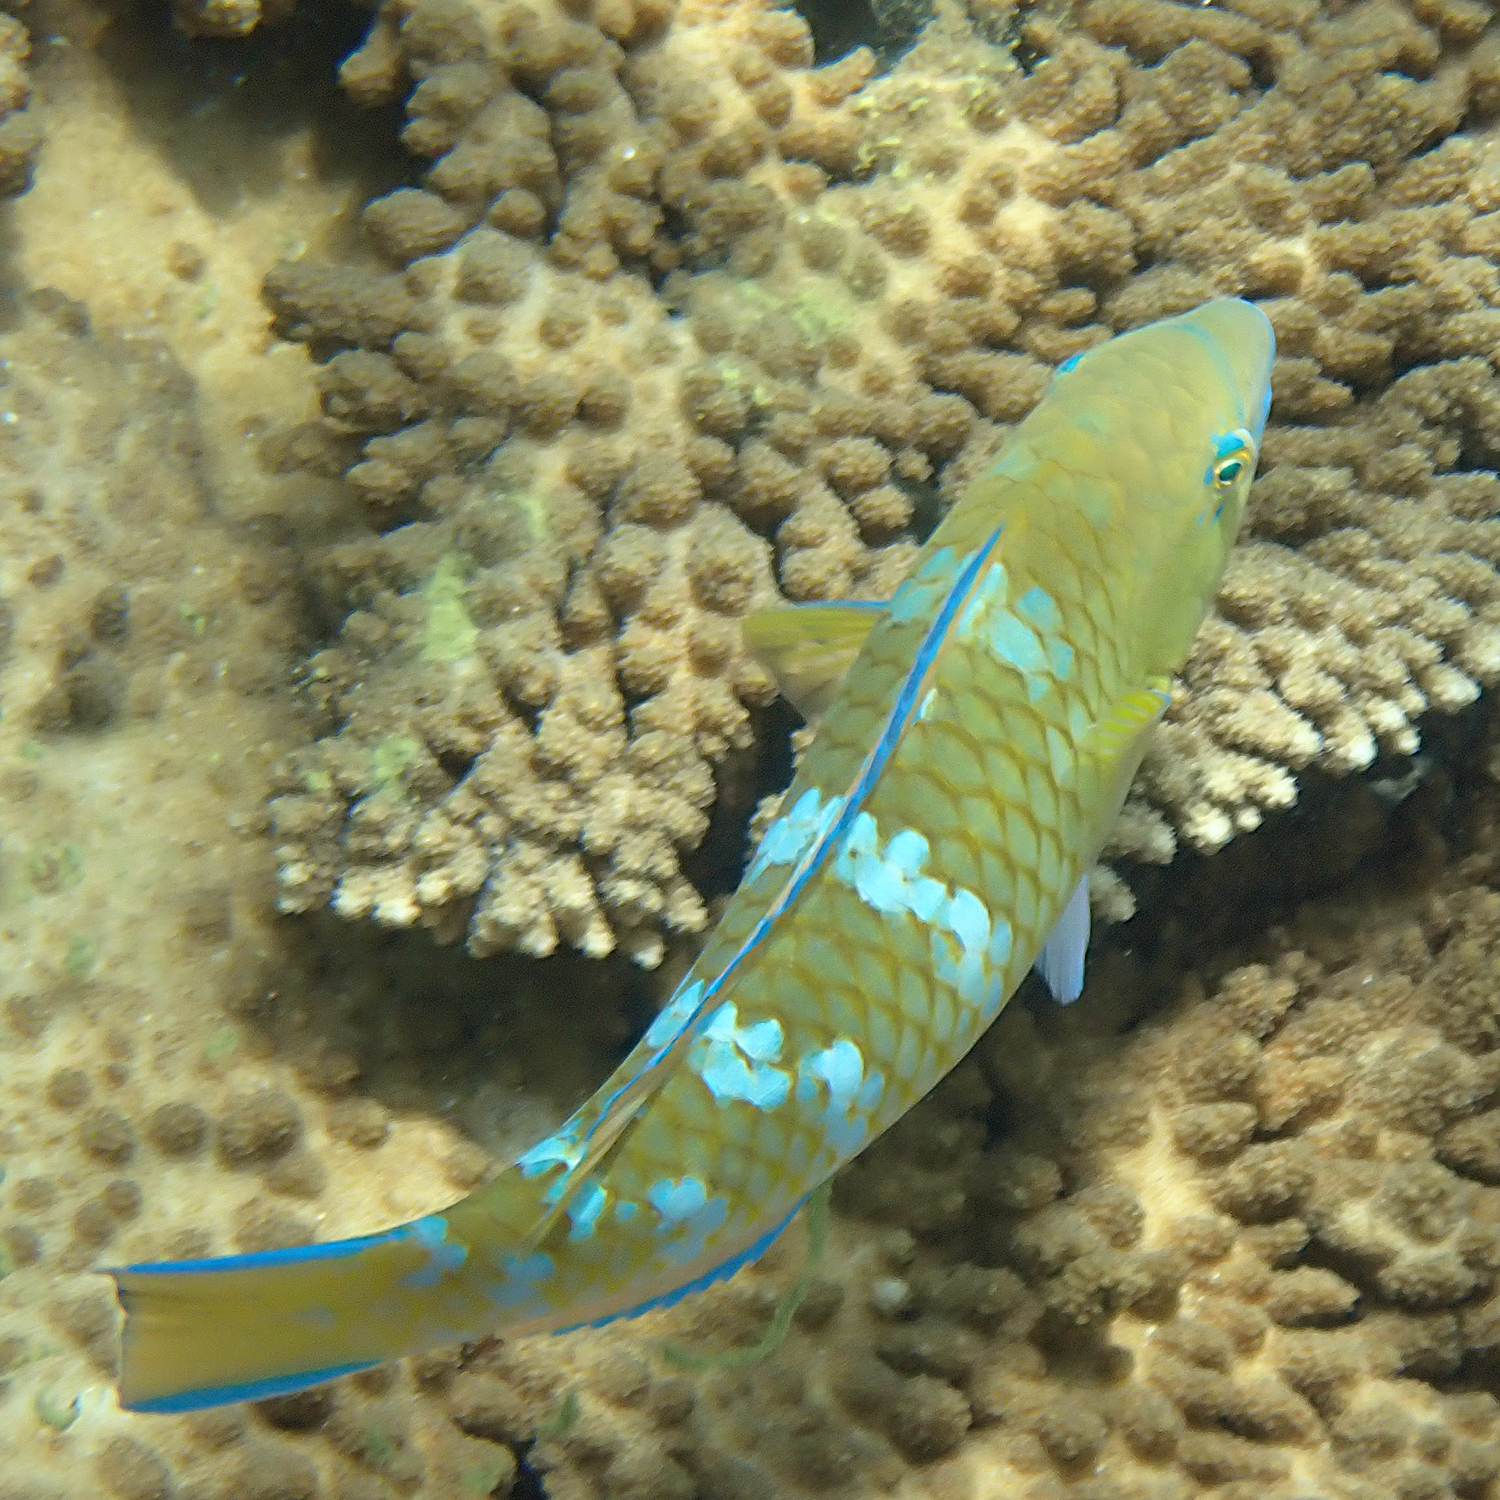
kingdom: Animalia
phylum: Chordata
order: Perciformes
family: Scaridae
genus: Scarus
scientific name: Scarus ghobban
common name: Blue-barred parrotfish
